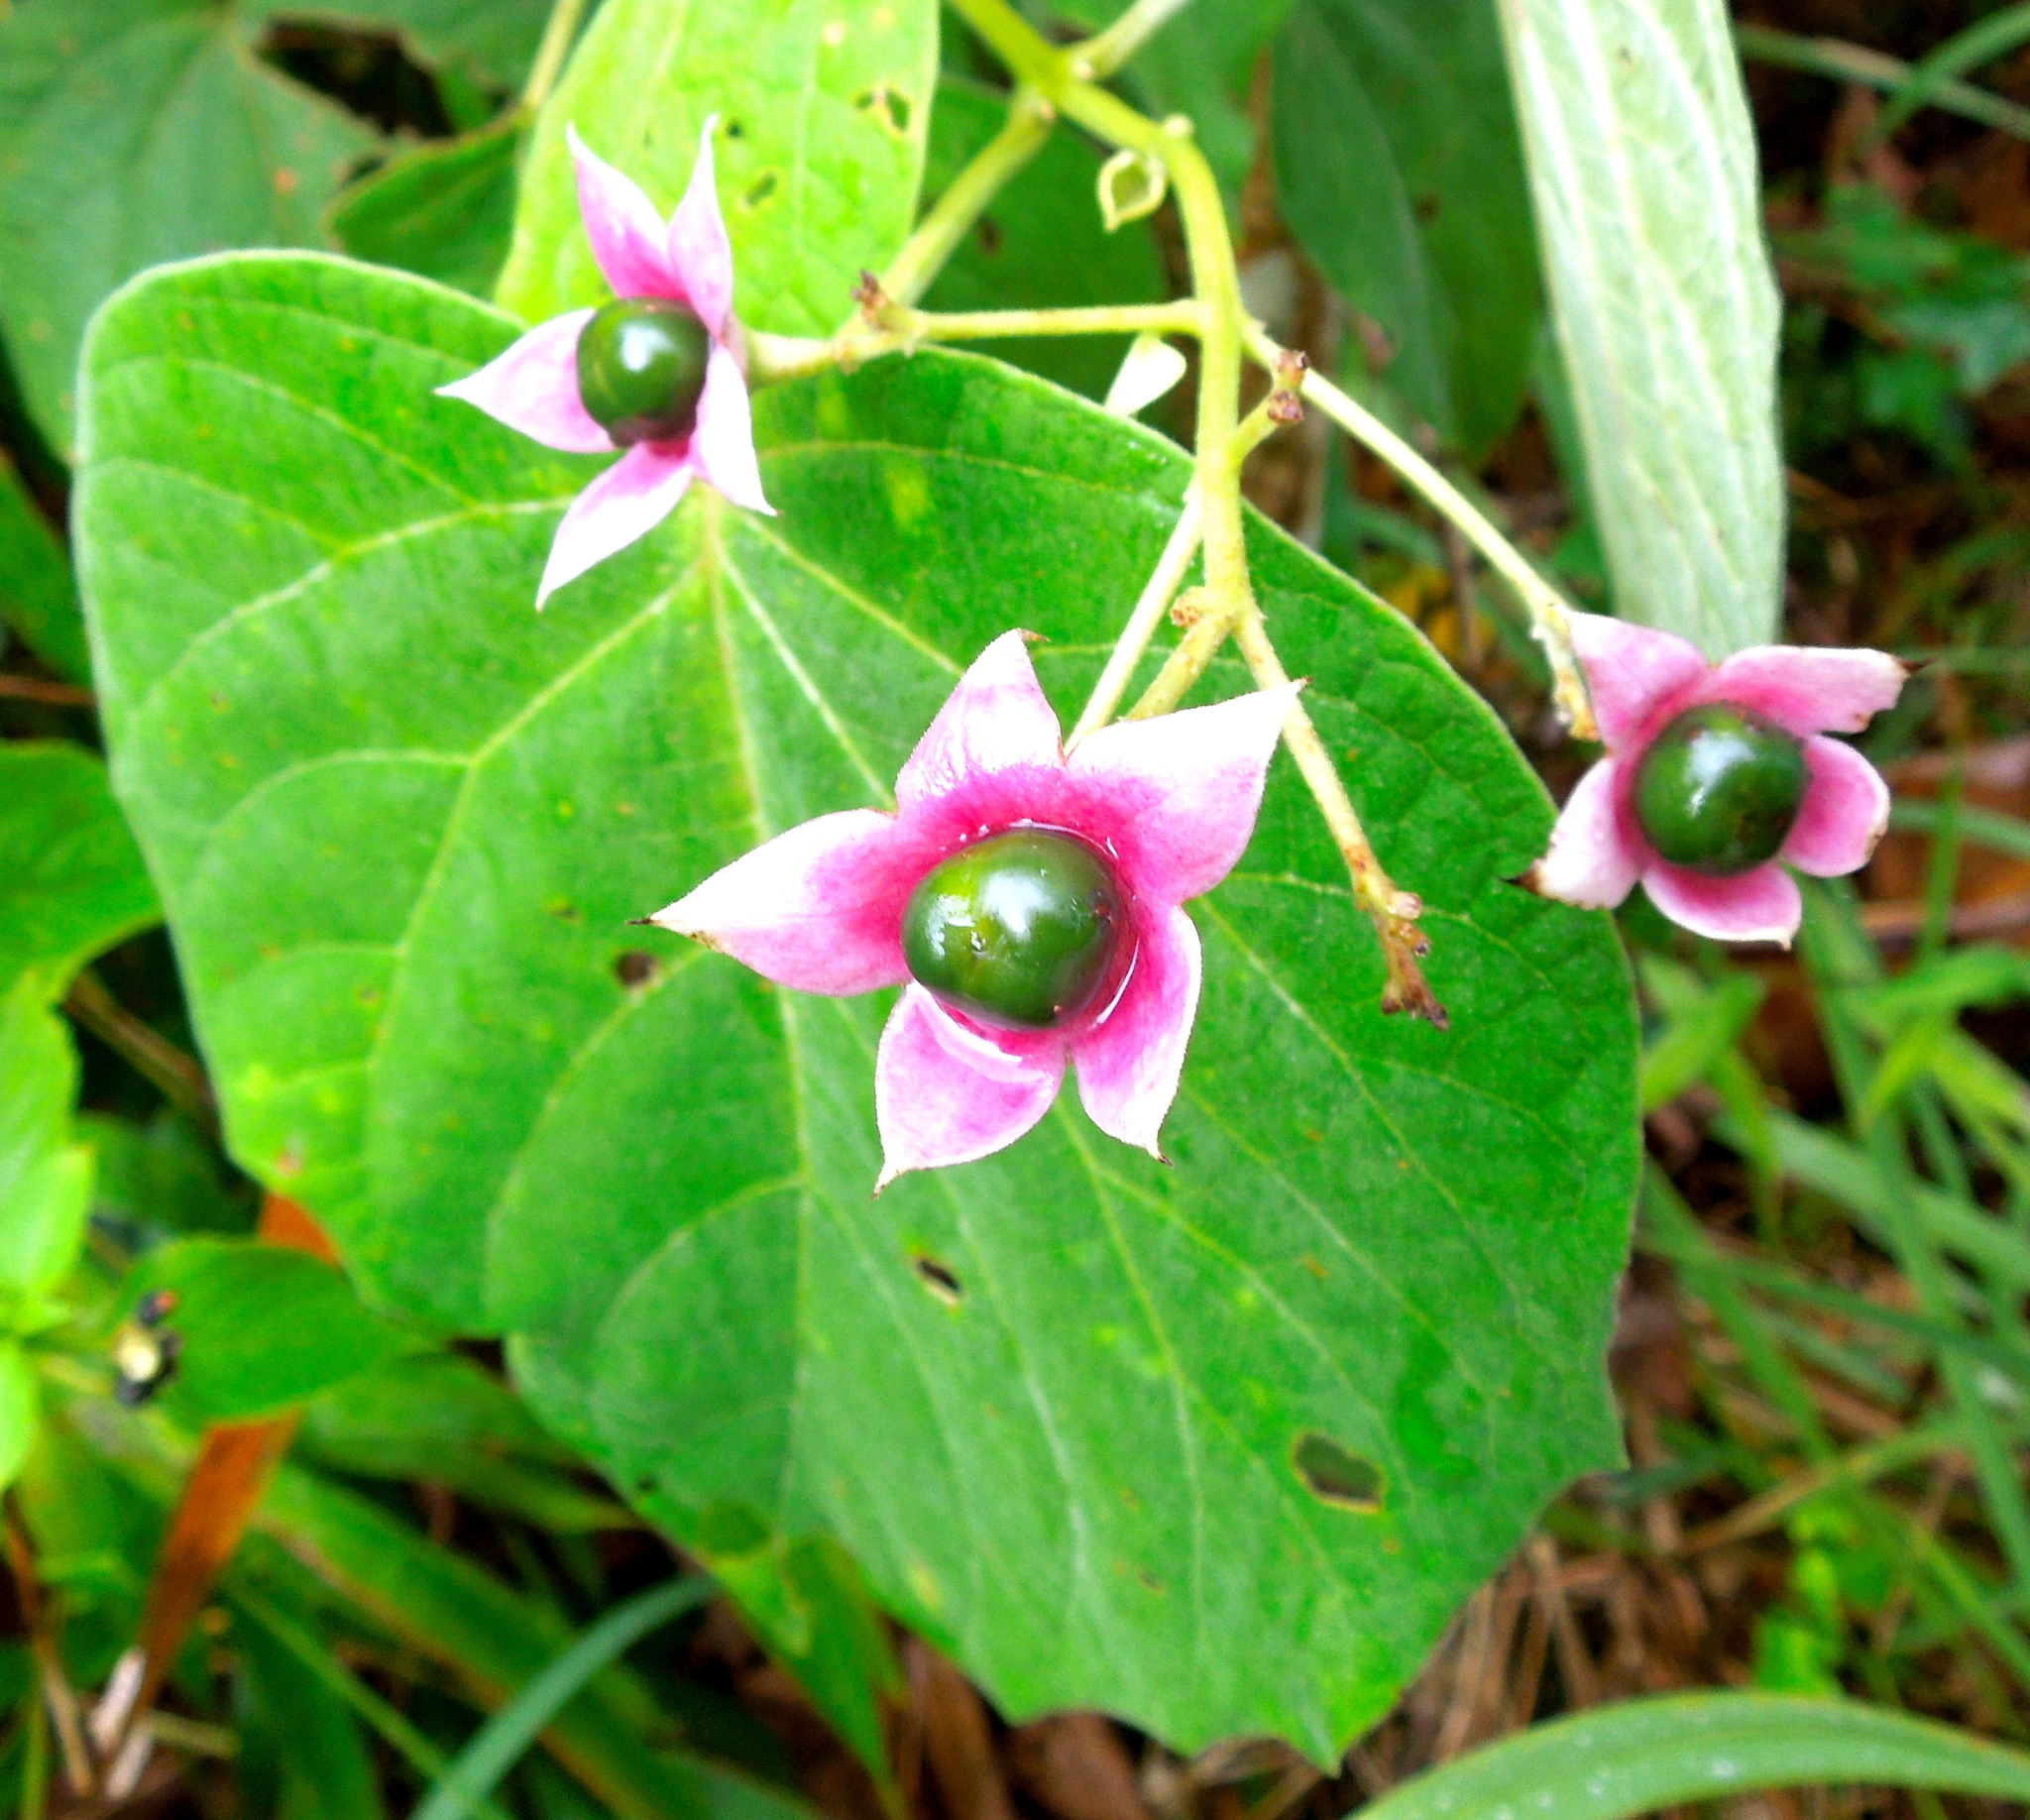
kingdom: Plantae
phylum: Tracheophyta
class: Magnoliopsida
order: Lamiales
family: Lamiaceae
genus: Clerodendrum
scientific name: Clerodendrum villosum
